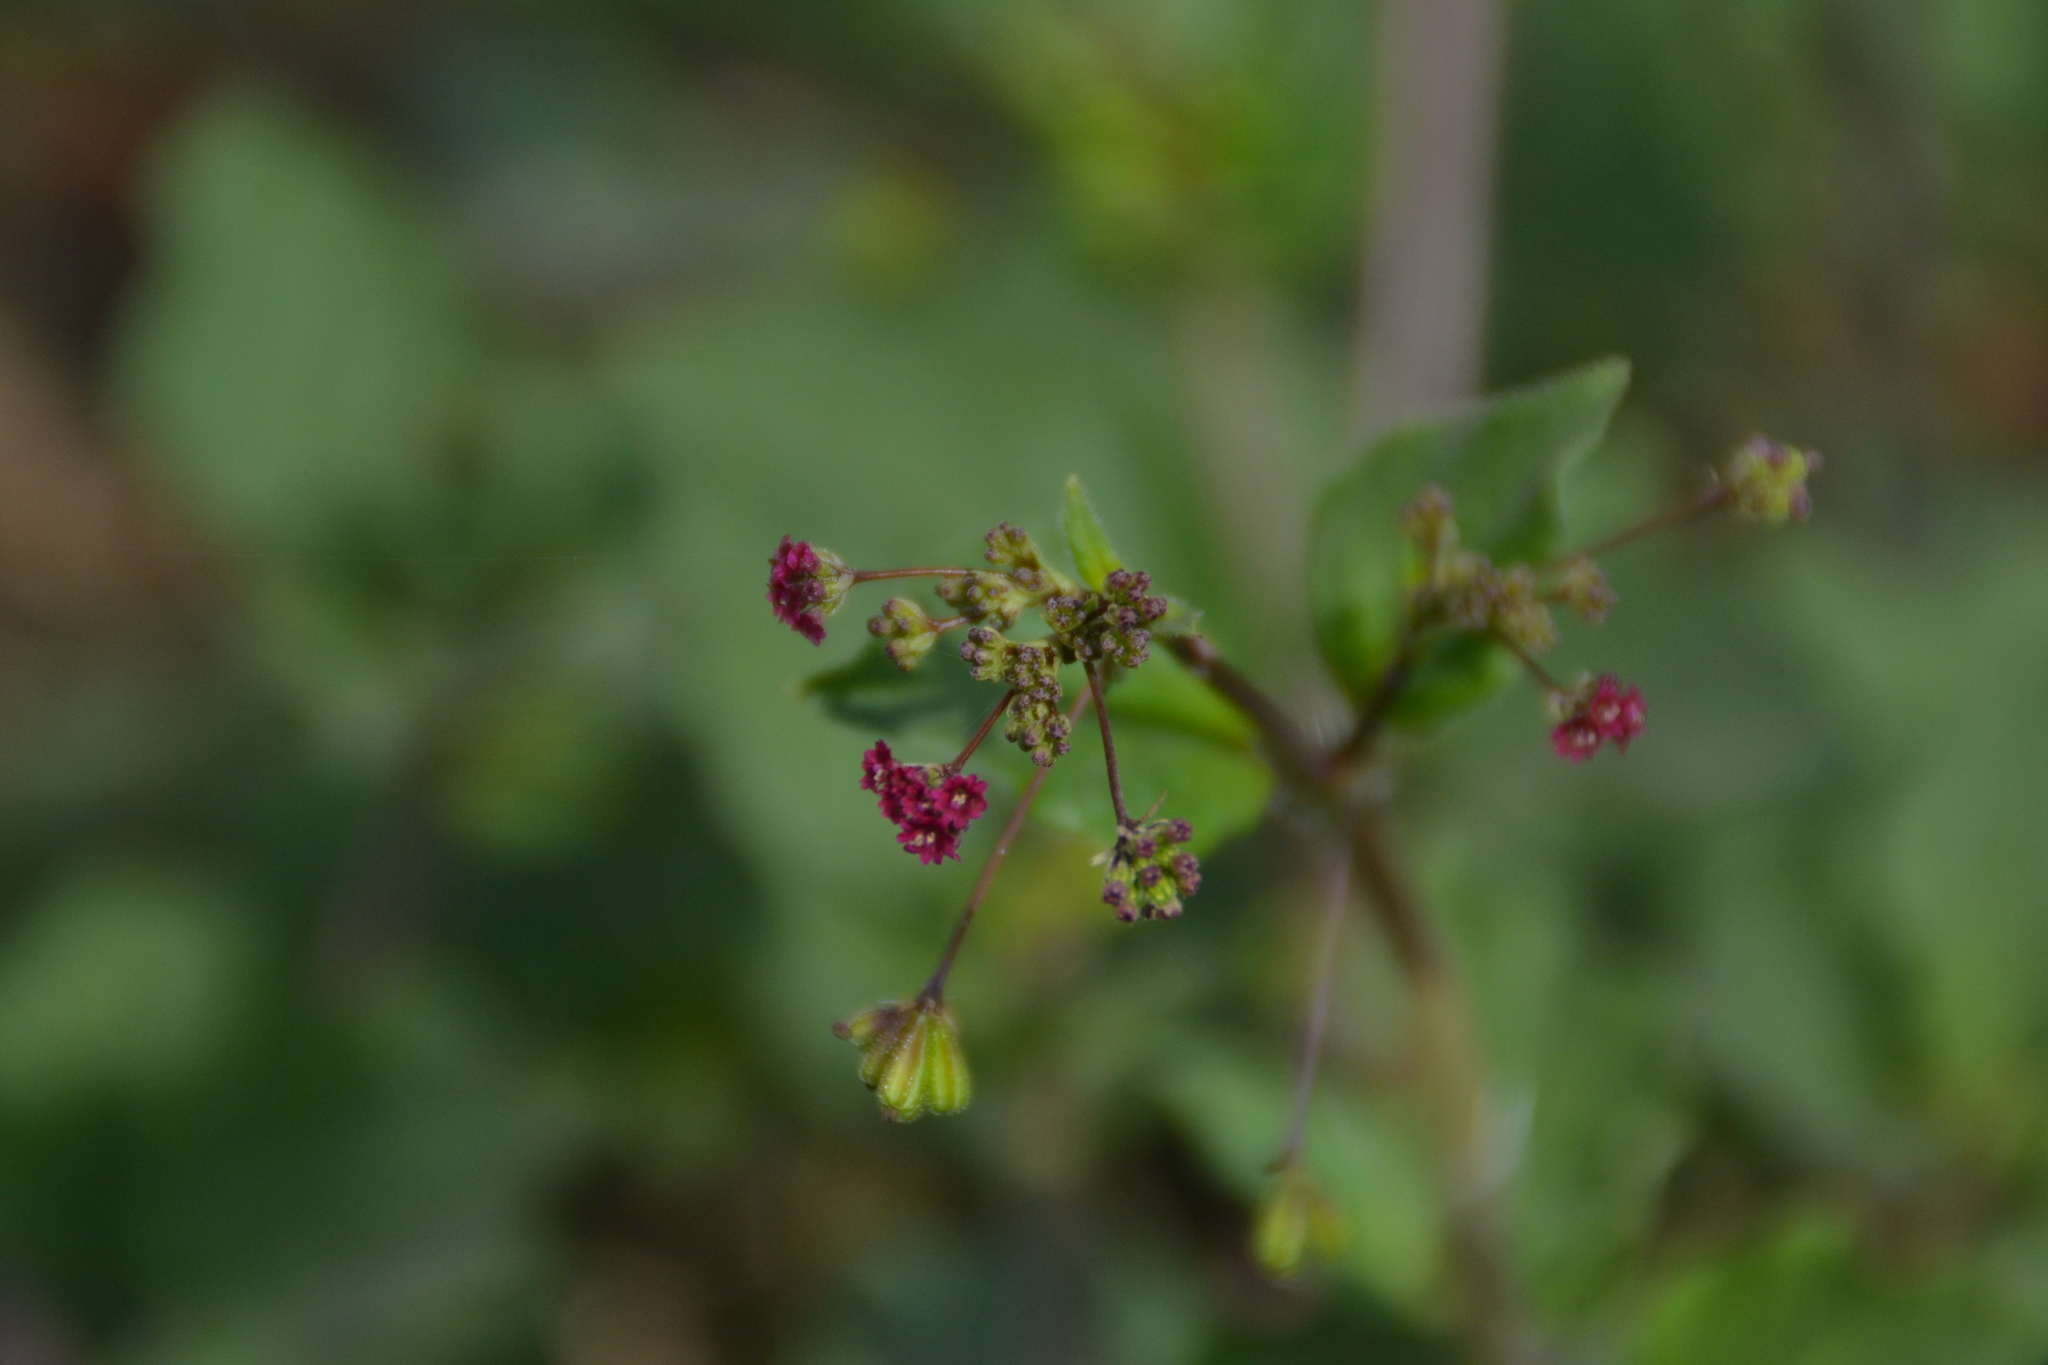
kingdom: Plantae
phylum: Tracheophyta
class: Magnoliopsida
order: Caryophyllales
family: Nyctaginaceae
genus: Boerhavia
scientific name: Boerhavia coccinea
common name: Scarlet spiderling
